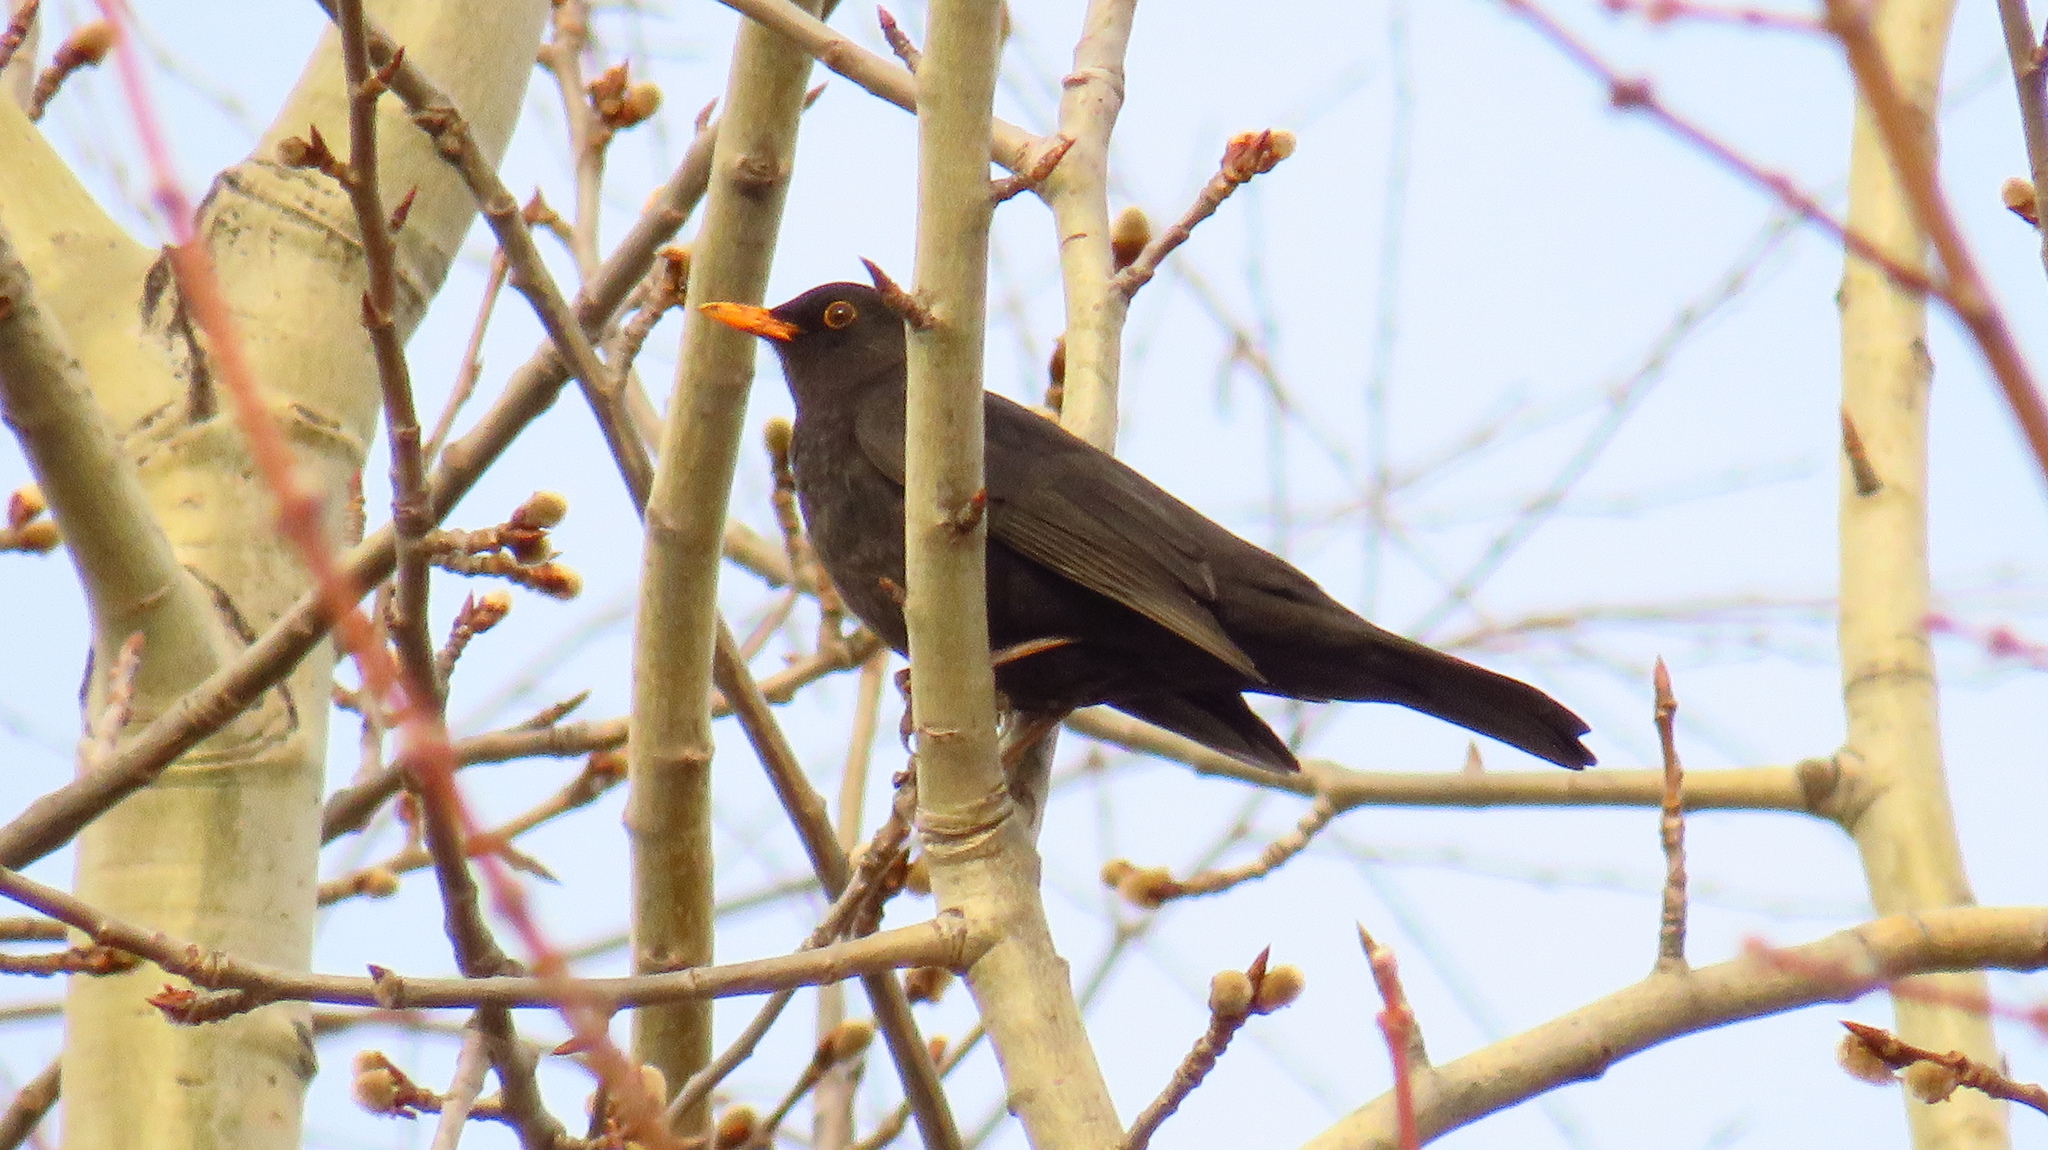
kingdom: Animalia
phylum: Chordata
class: Aves
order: Passeriformes
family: Turdidae
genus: Turdus
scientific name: Turdus merula
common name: Common blackbird
